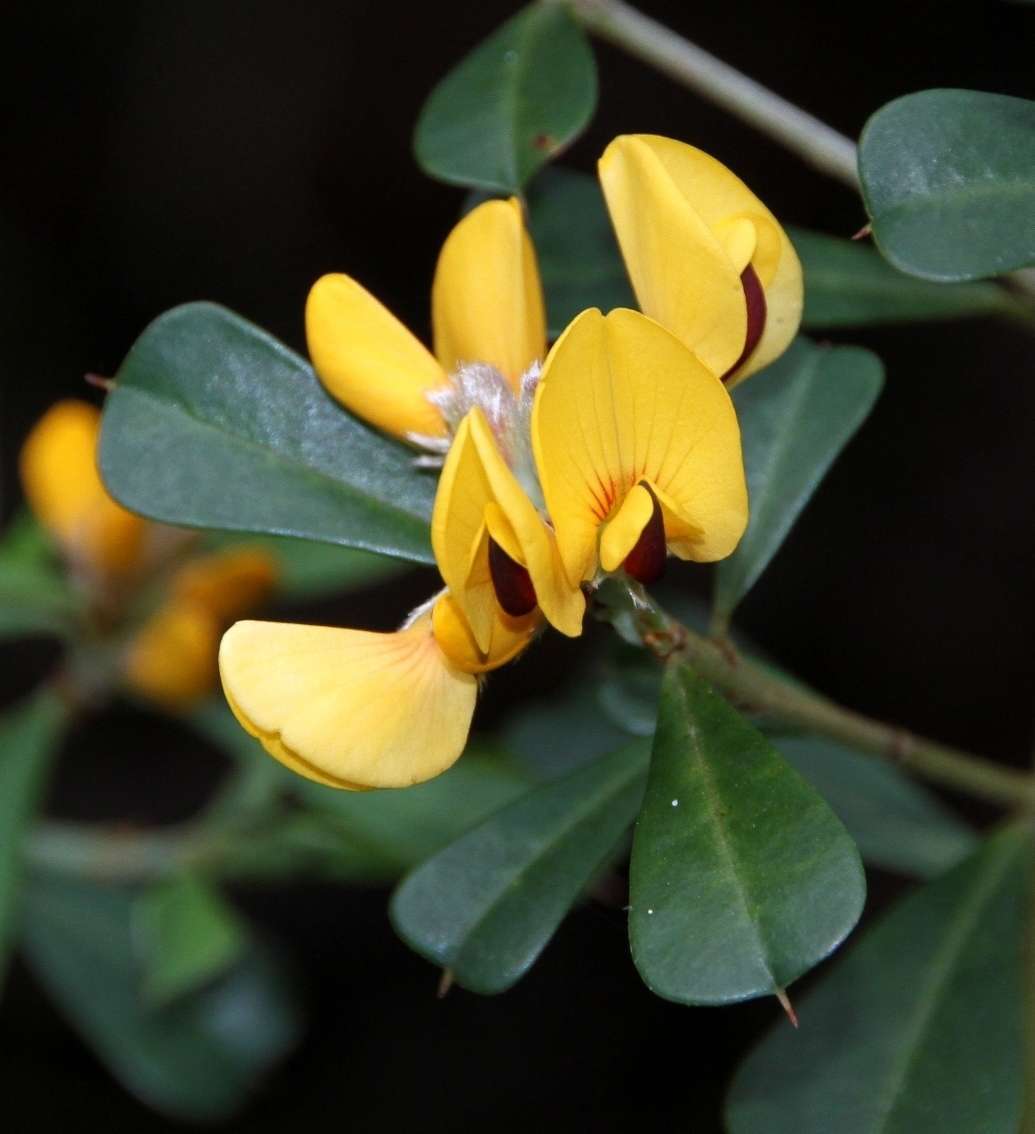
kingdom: Plantae
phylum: Tracheophyta
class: Magnoliopsida
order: Fabales
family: Fabaceae
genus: Pultenaea
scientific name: Pultenaea daphnoides
